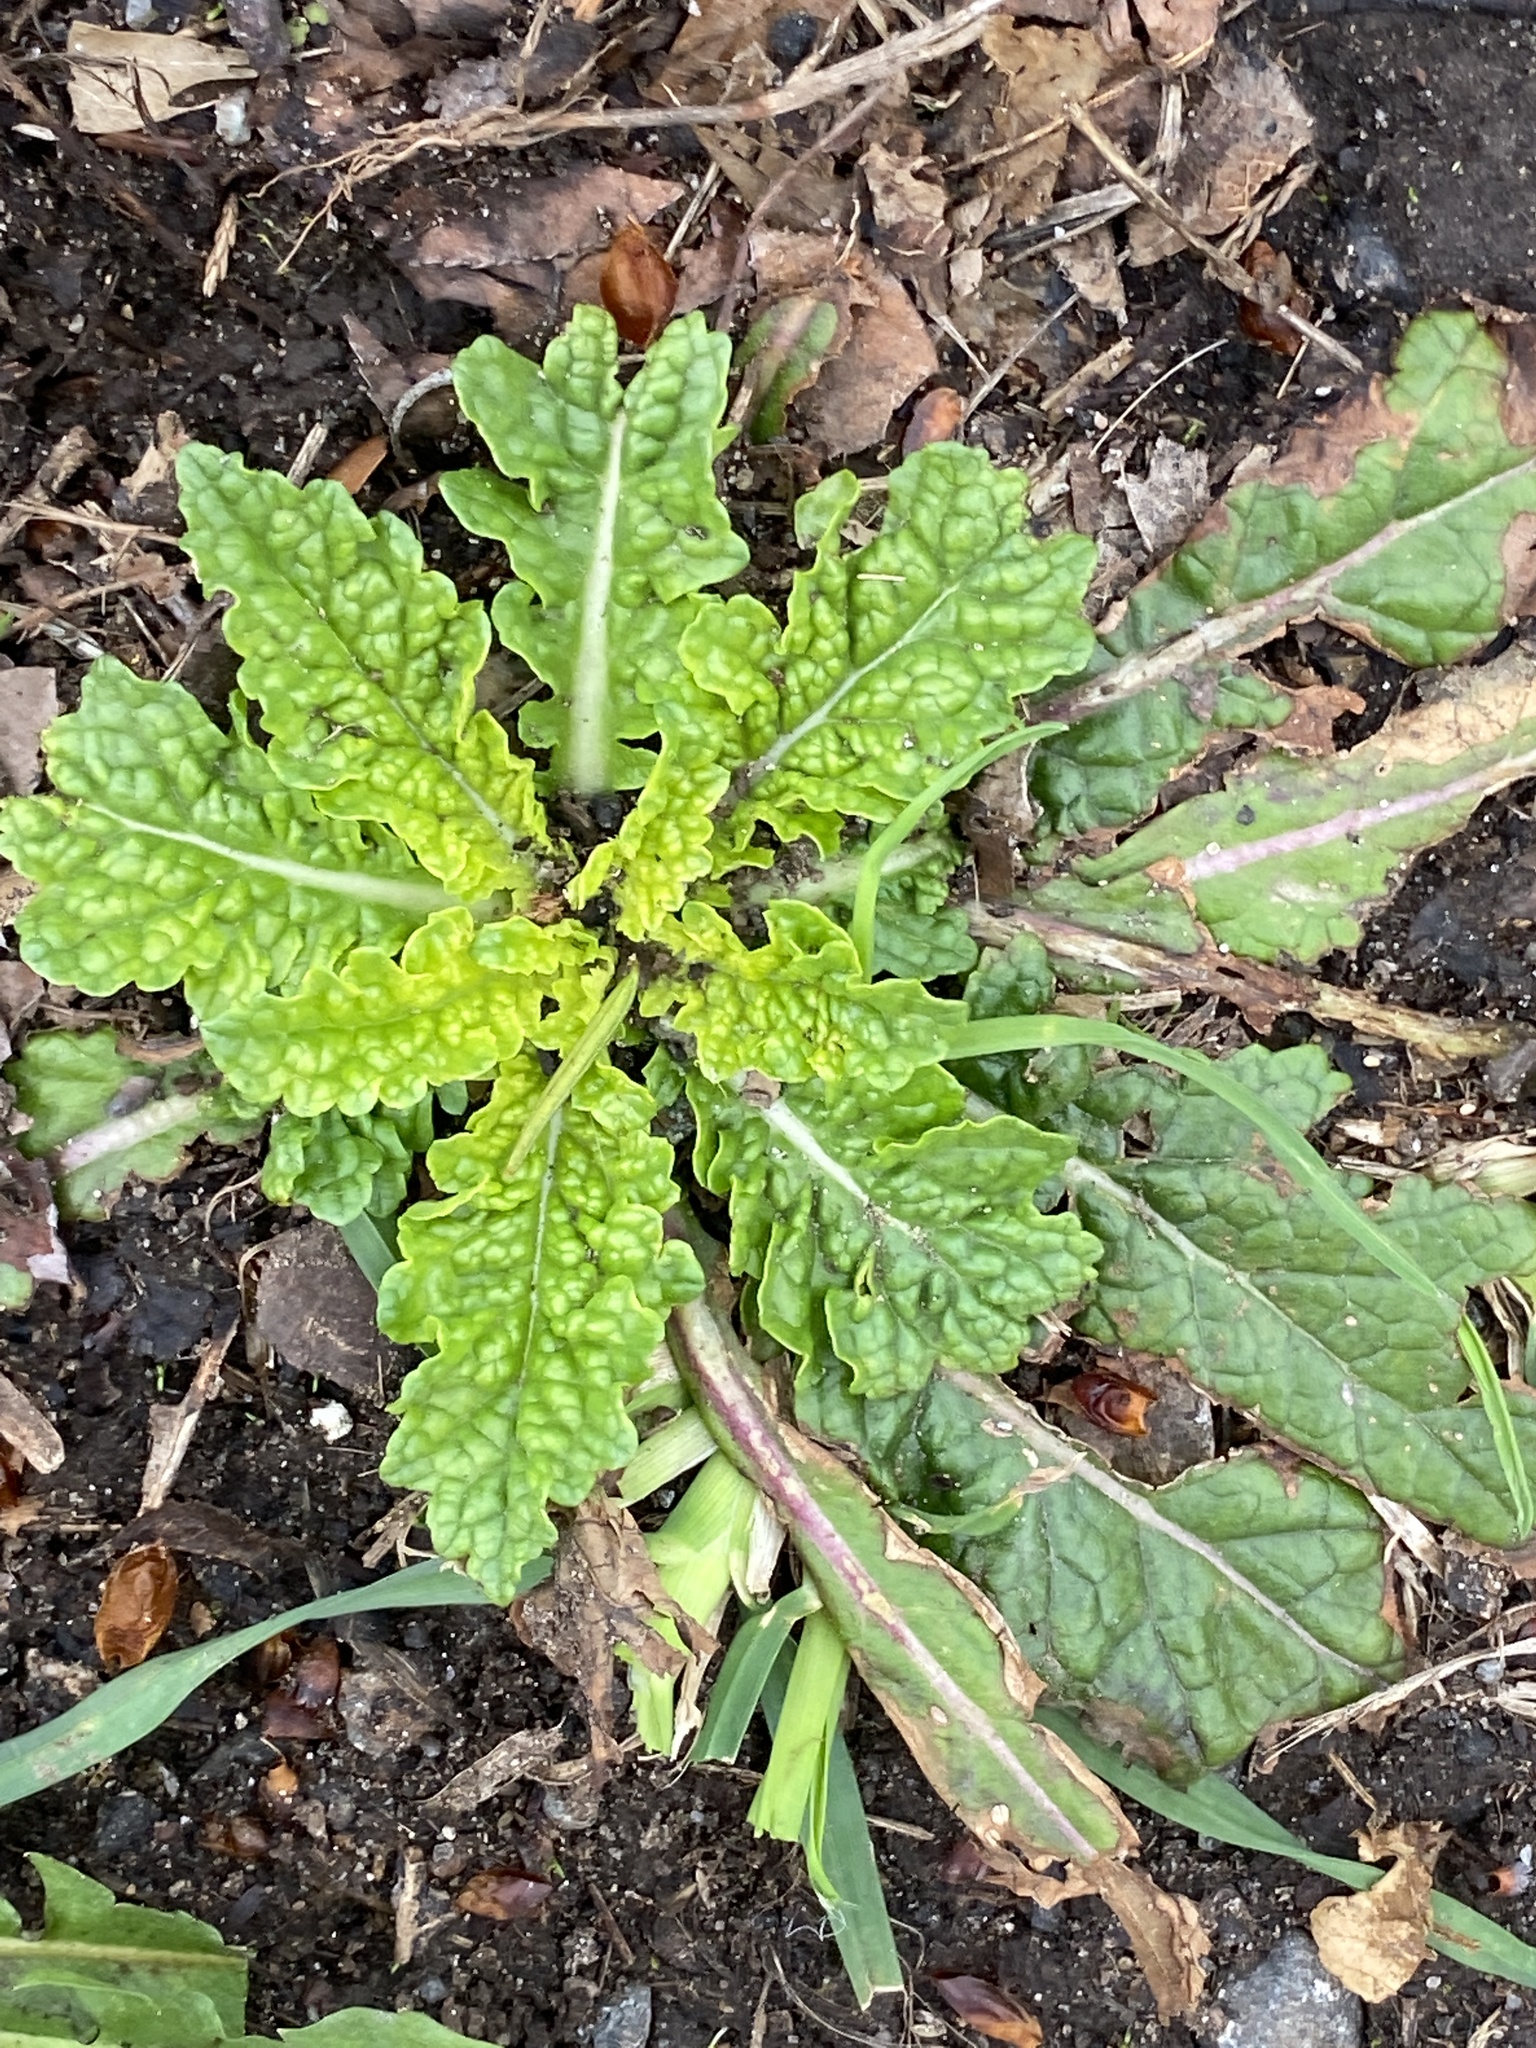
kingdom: Plantae
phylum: Tracheophyta
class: Magnoliopsida
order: Lamiales
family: Scrophulariaceae
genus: Verbascum
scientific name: Verbascum blattaria
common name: Moth mullein
